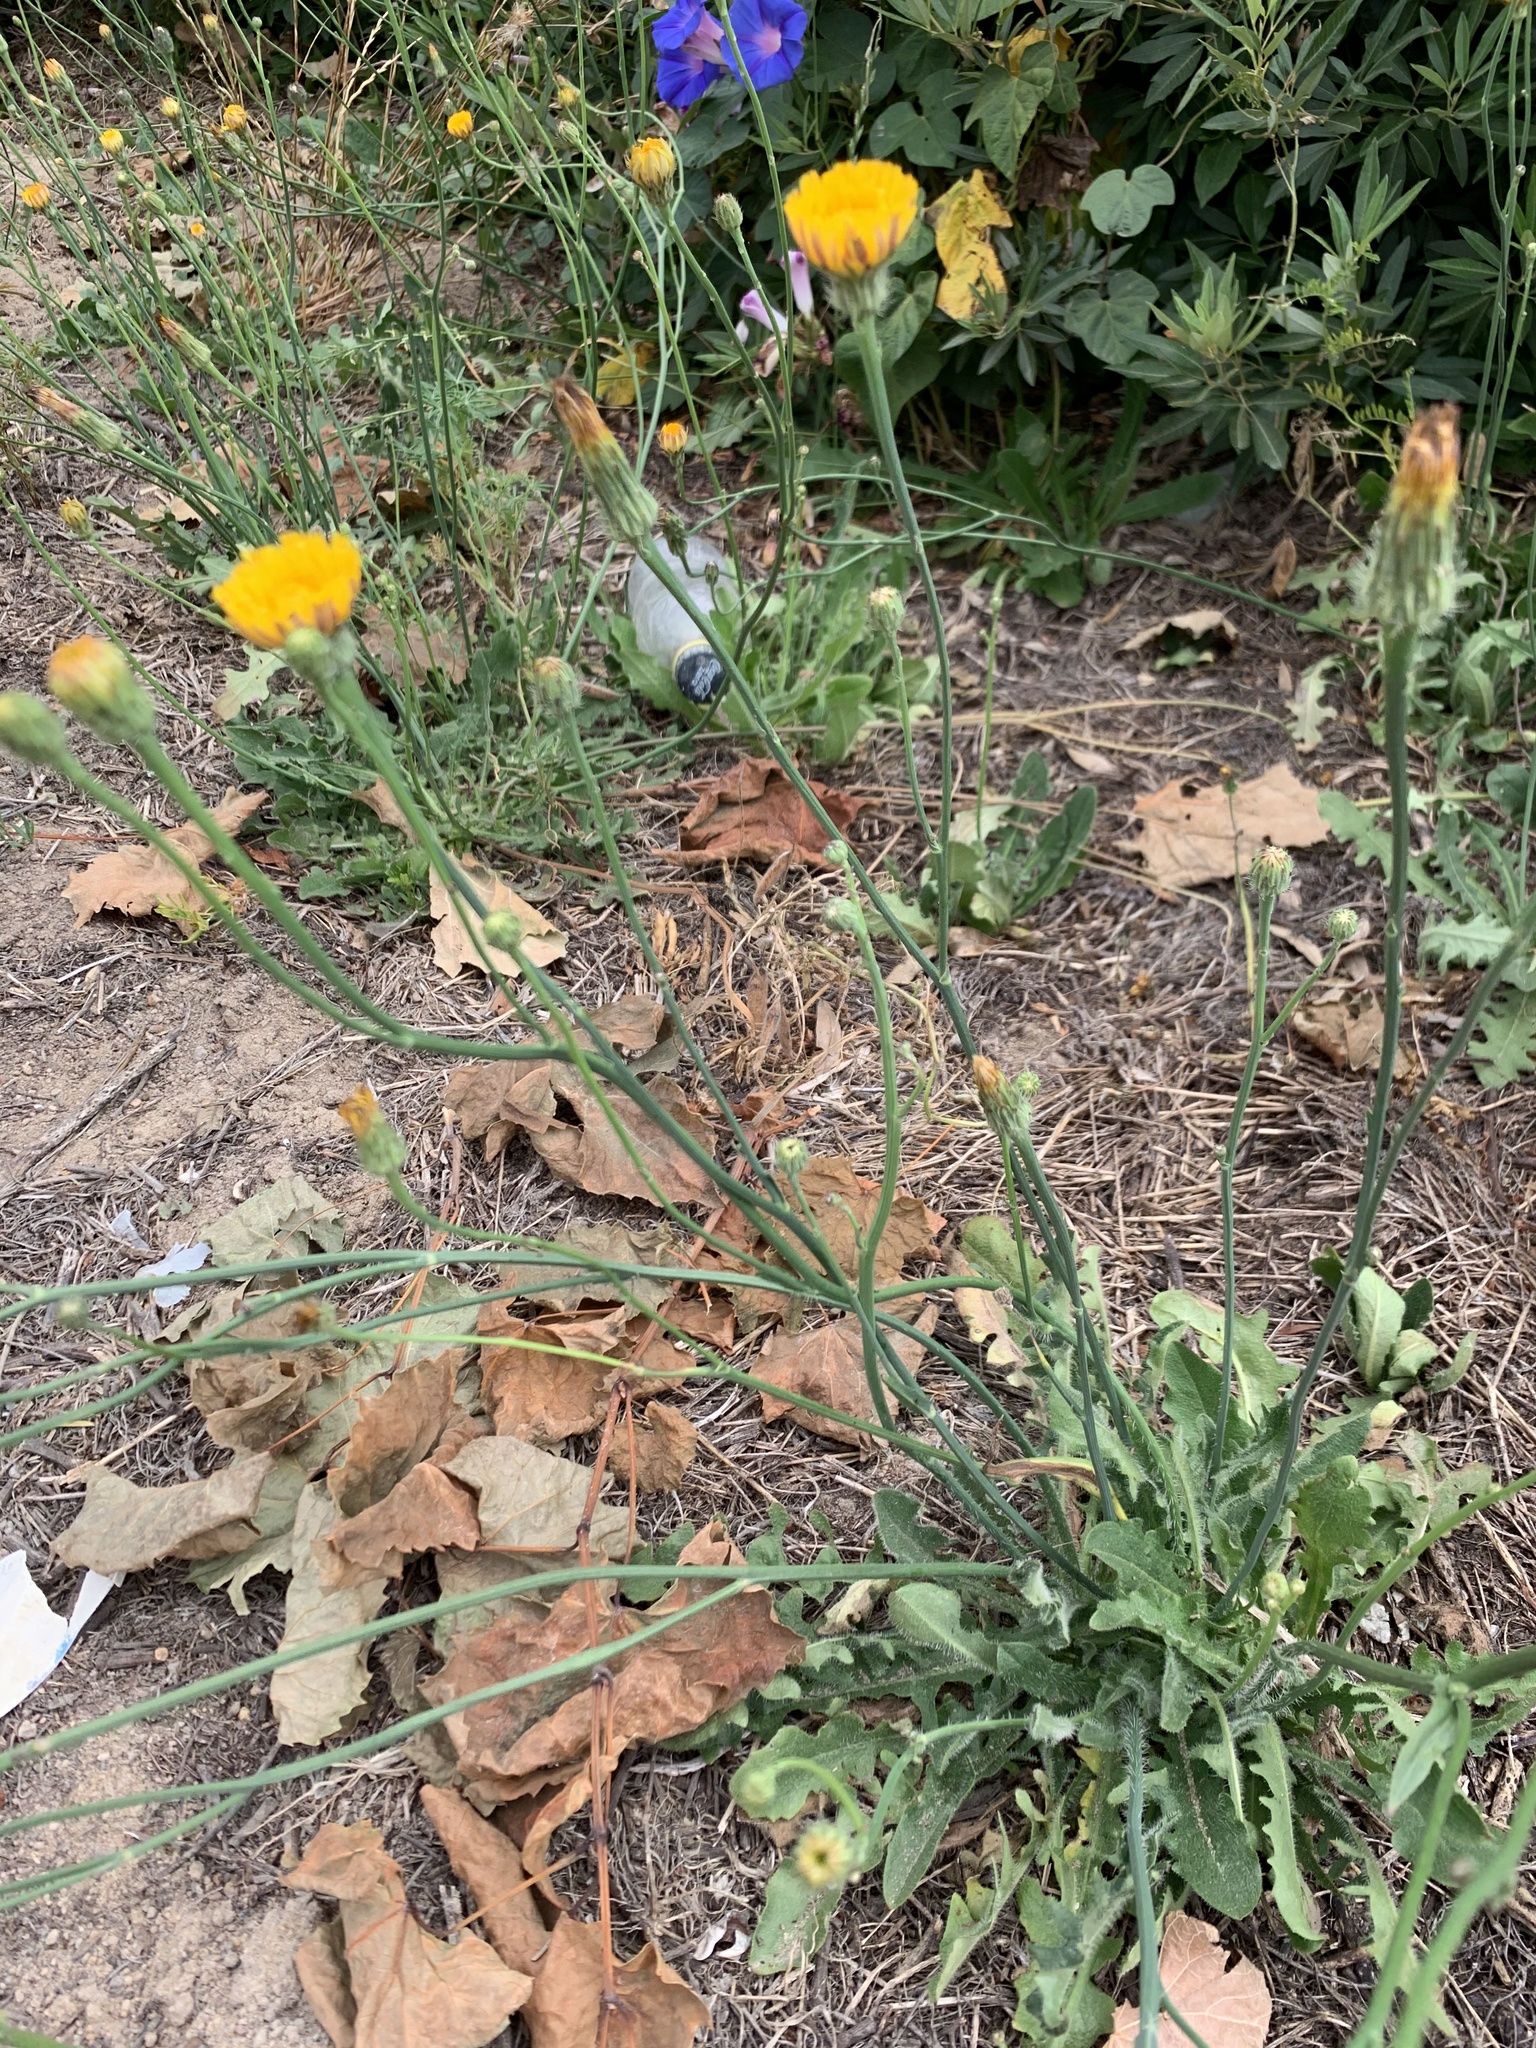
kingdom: Plantae
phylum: Tracheophyta
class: Magnoliopsida
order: Asterales
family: Asteraceae
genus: Hypochaeris
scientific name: Hypochaeris radicata
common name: Flatweed
